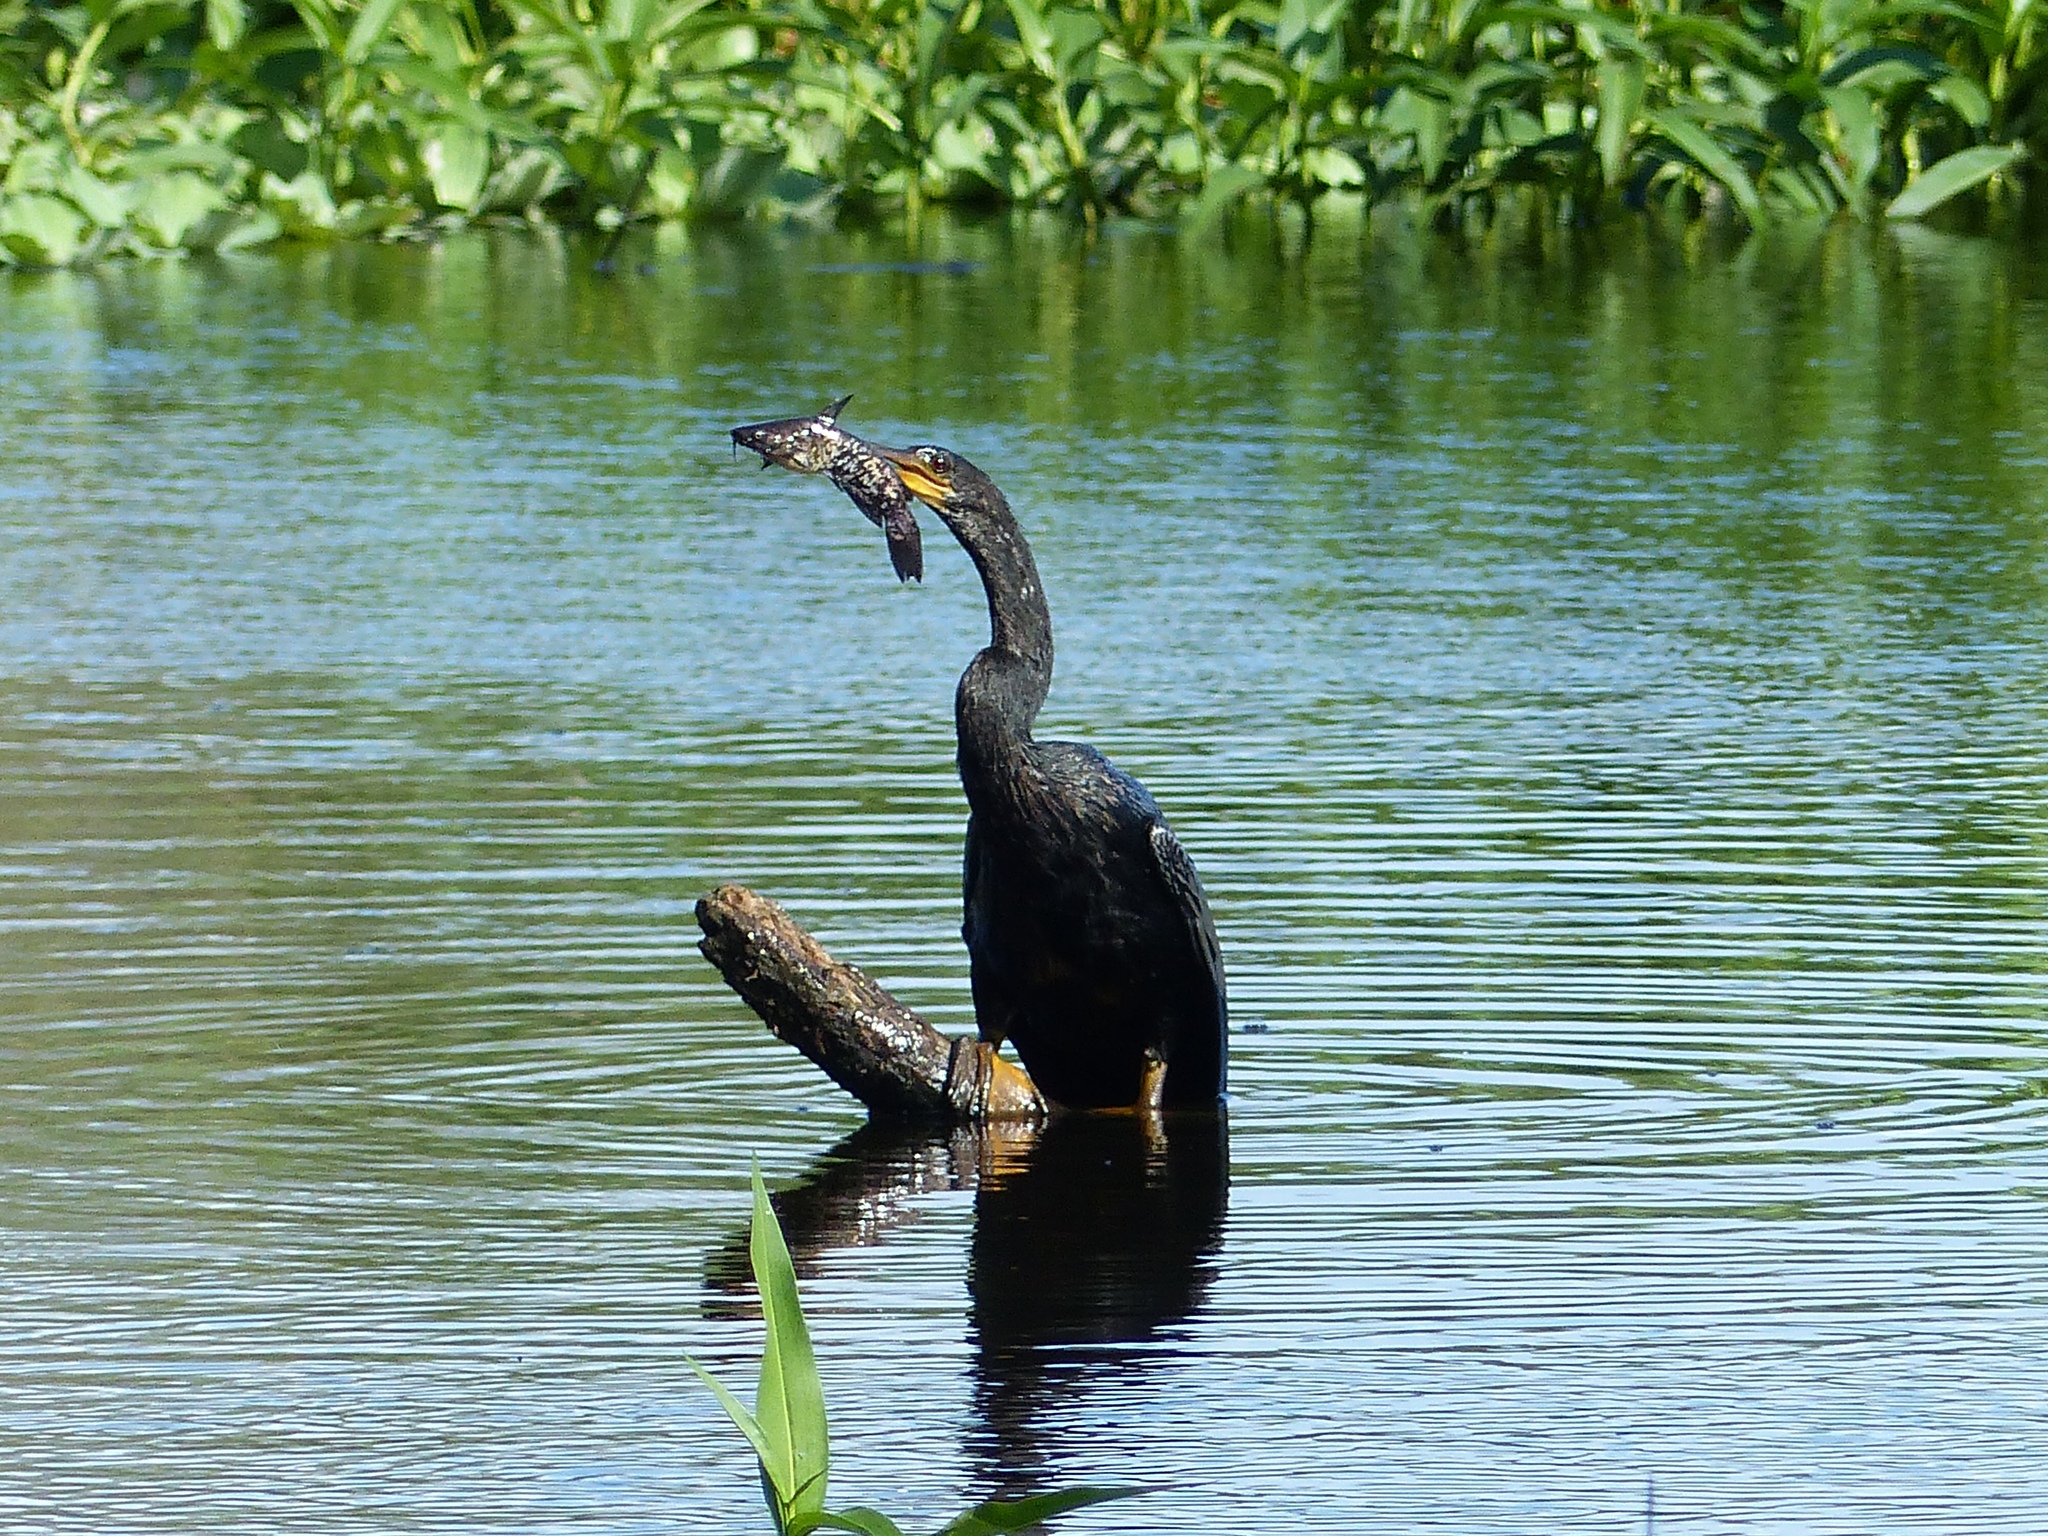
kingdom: Animalia
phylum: Chordata
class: Aves
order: Suliformes
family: Anhingidae
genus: Anhinga
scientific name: Anhinga anhinga
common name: Anhinga
